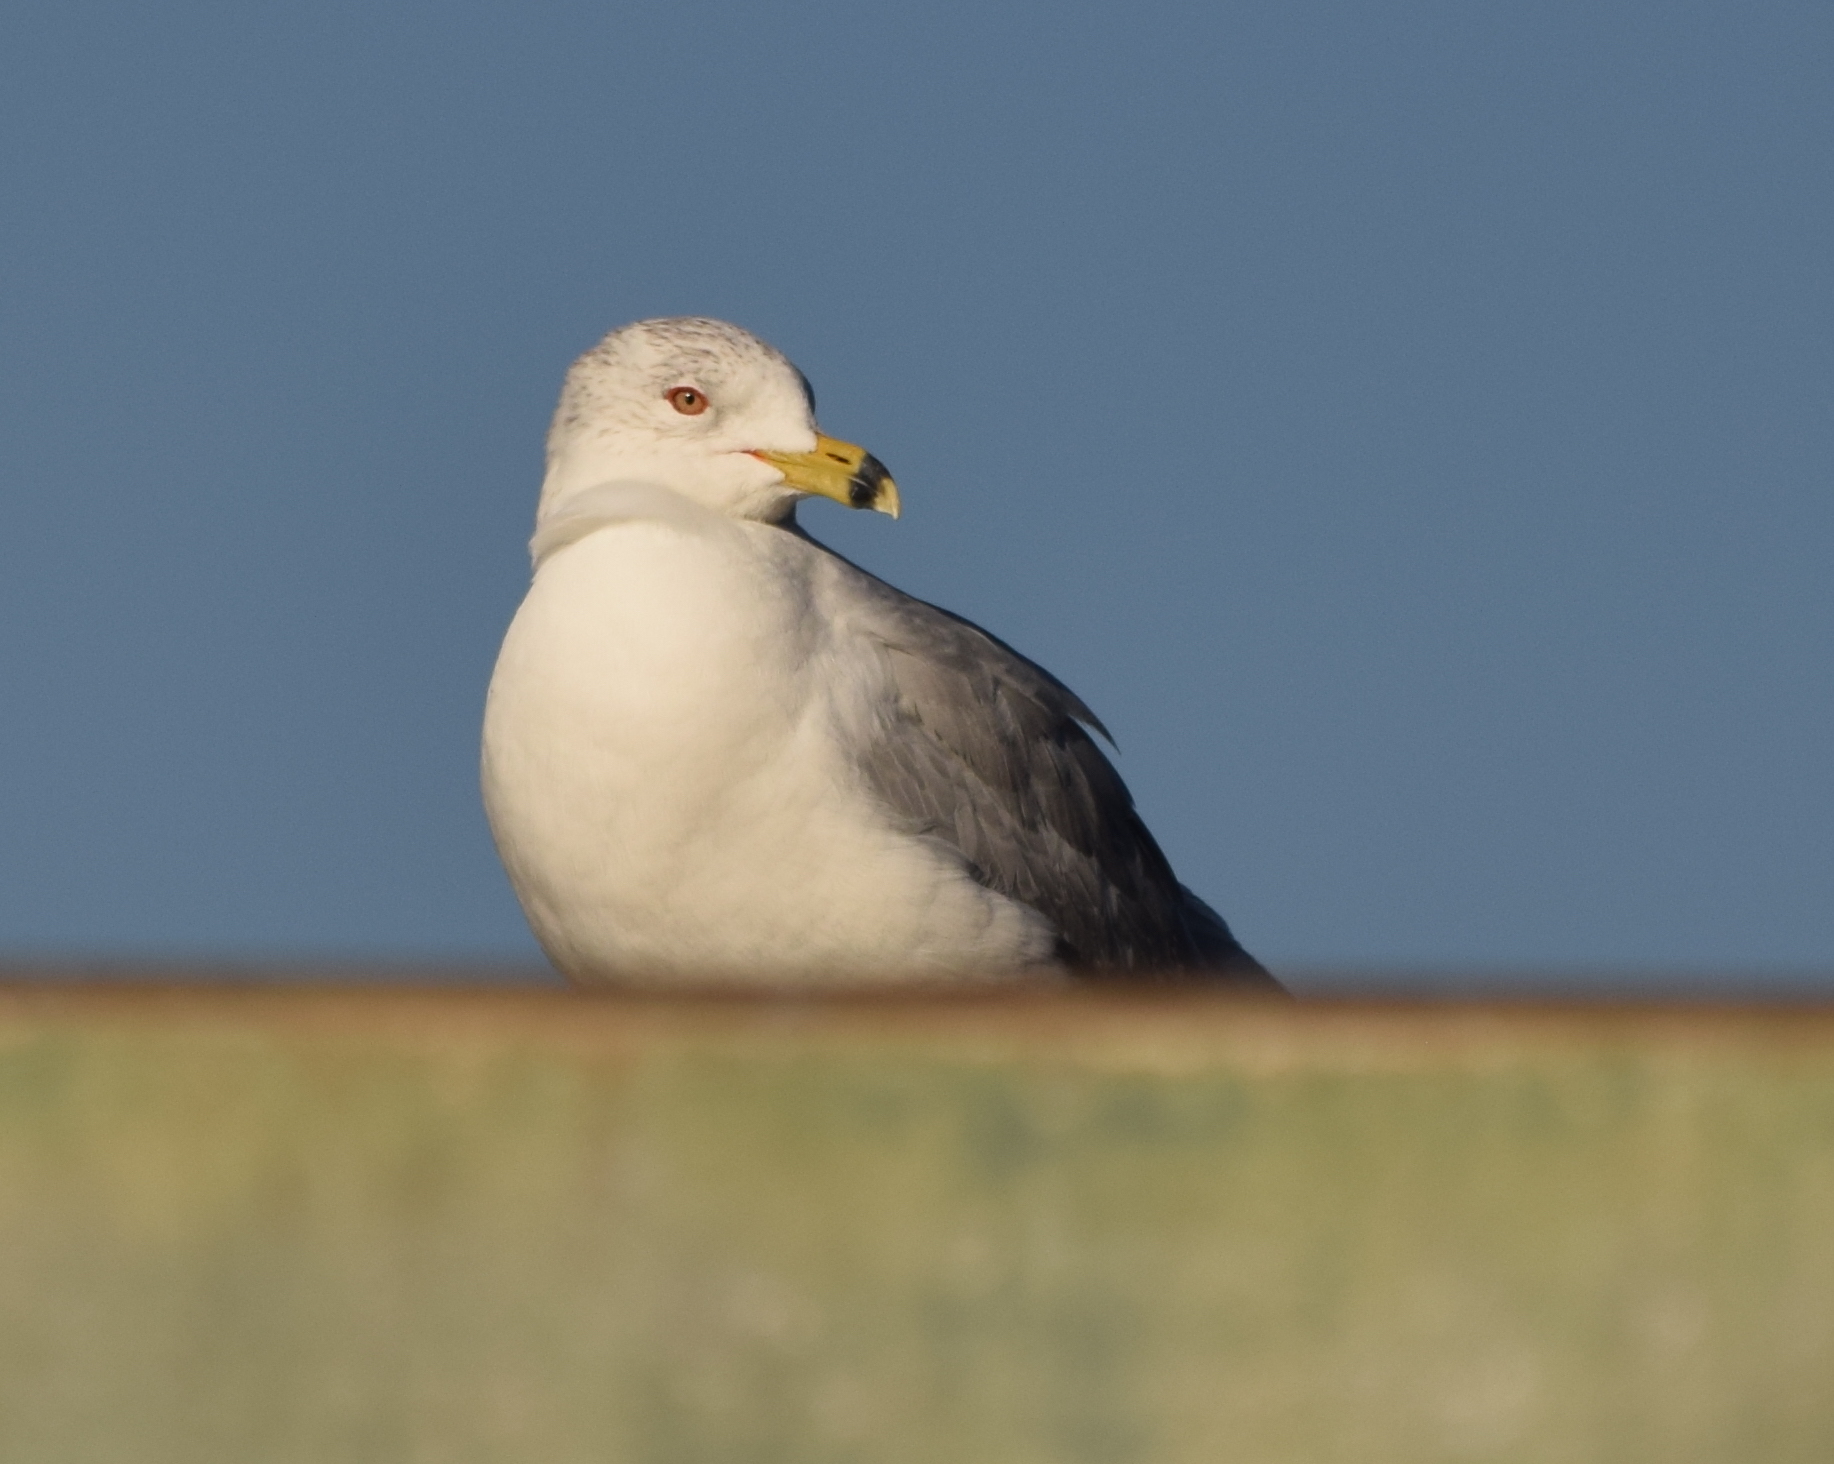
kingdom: Animalia
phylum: Chordata
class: Aves
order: Charadriiformes
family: Laridae
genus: Larus
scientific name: Larus delawarensis
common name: Ring-billed gull
